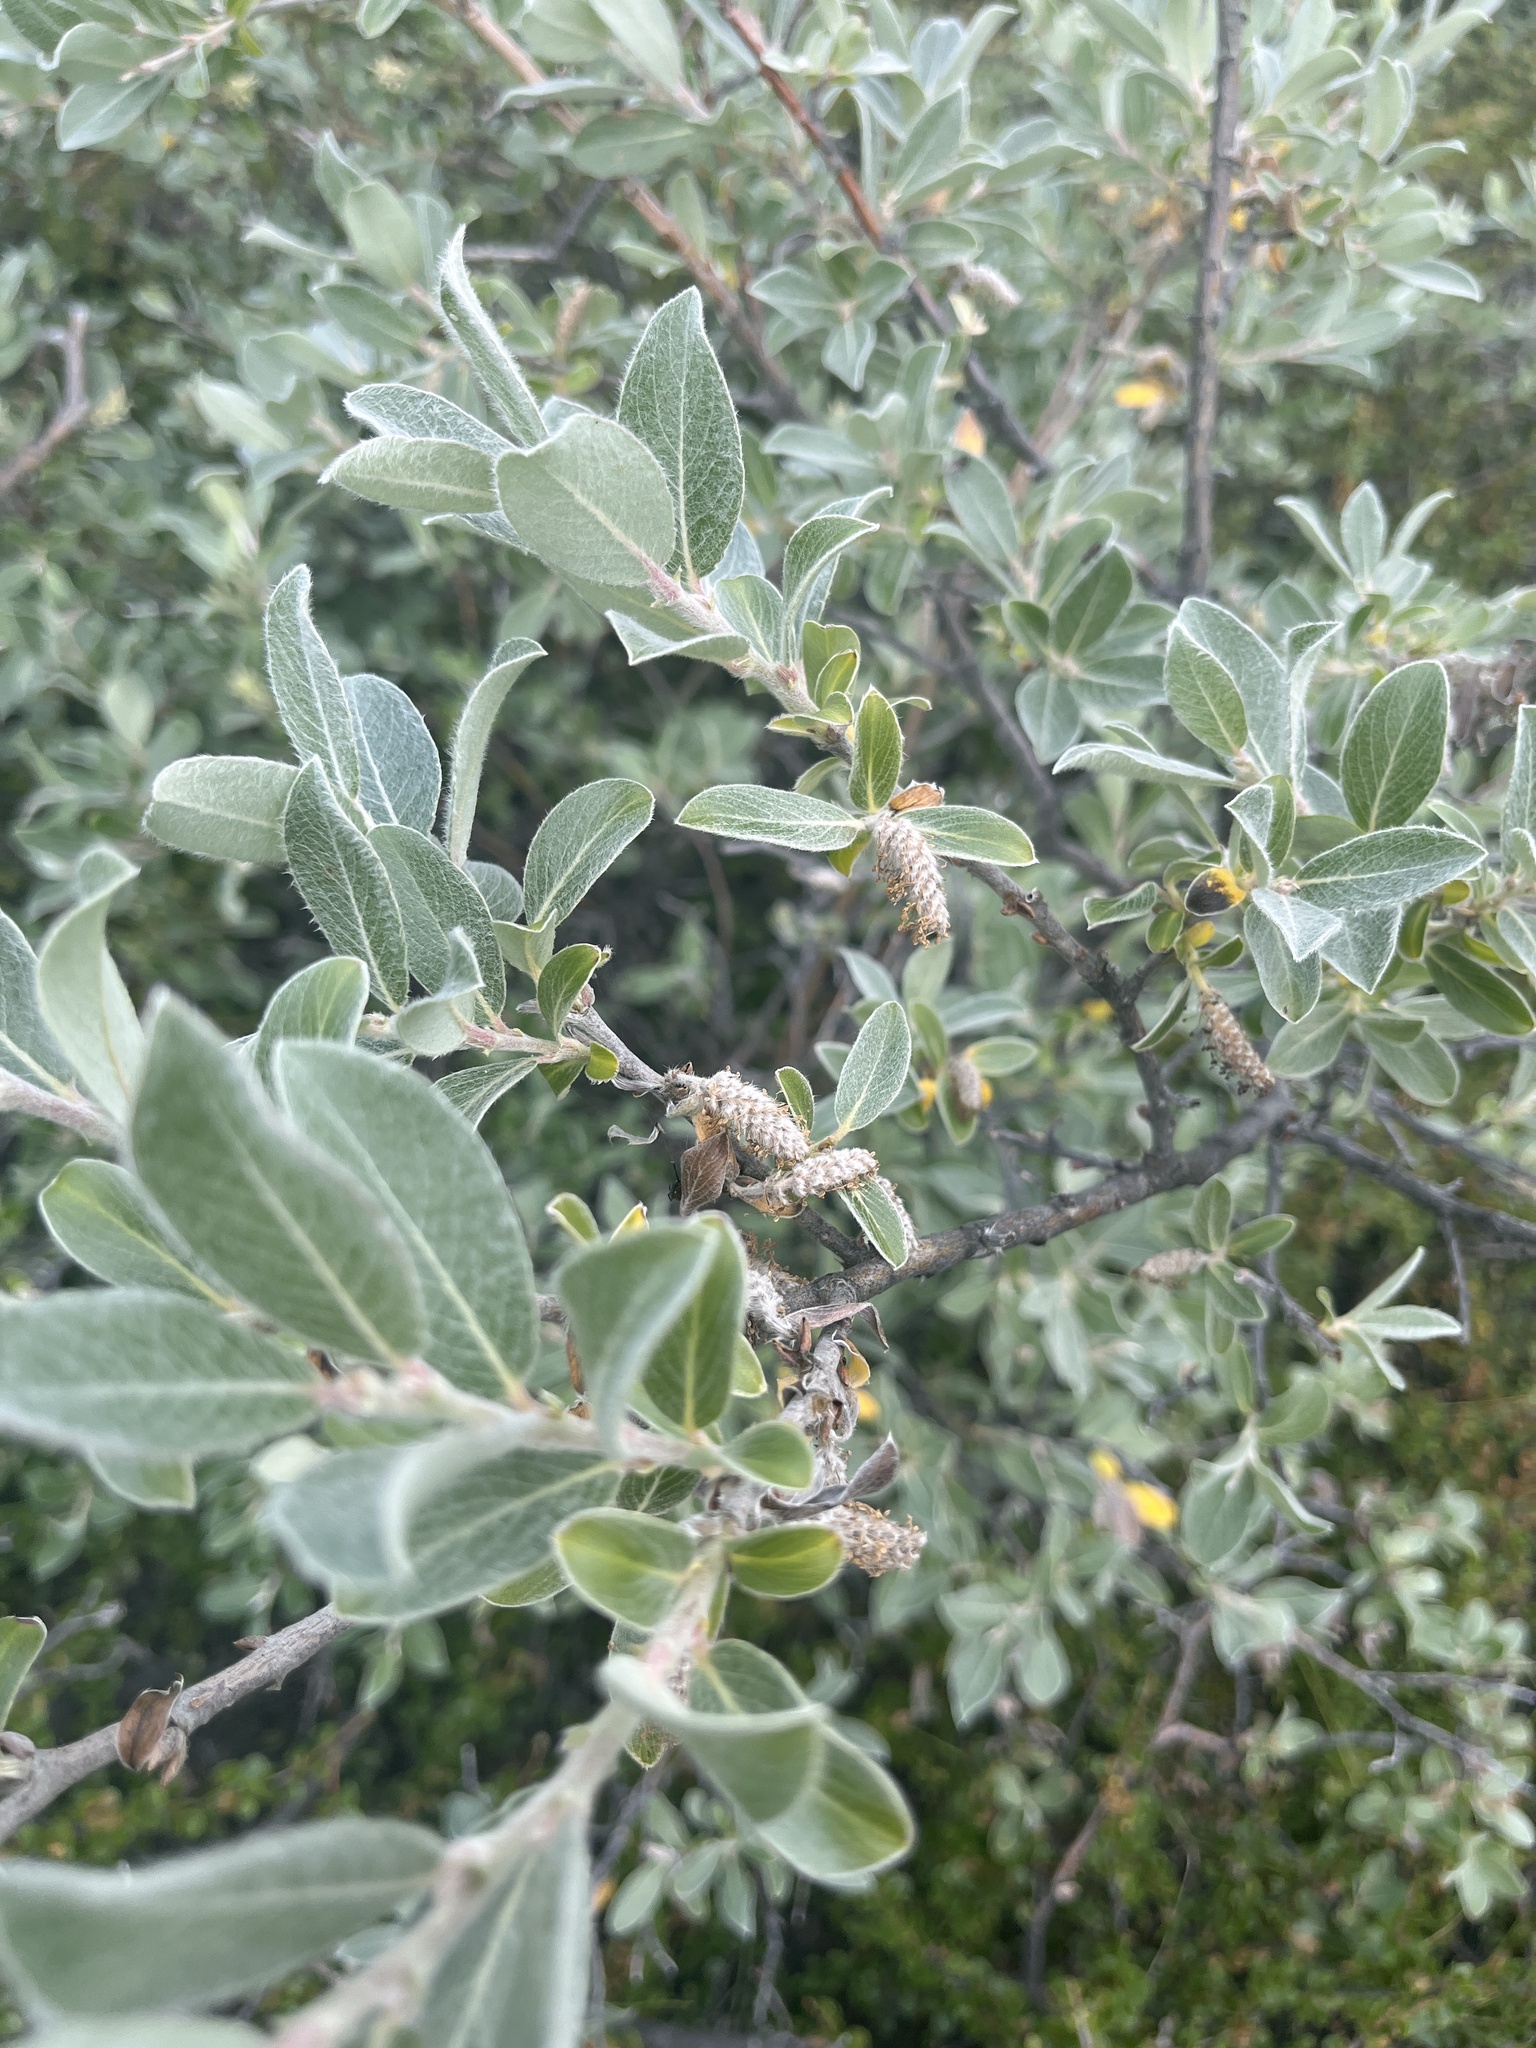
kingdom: Plantae
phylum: Tracheophyta
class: Magnoliopsida
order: Malpighiales
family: Salicaceae
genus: Salix
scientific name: Salix glauca
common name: Glaucous willow
